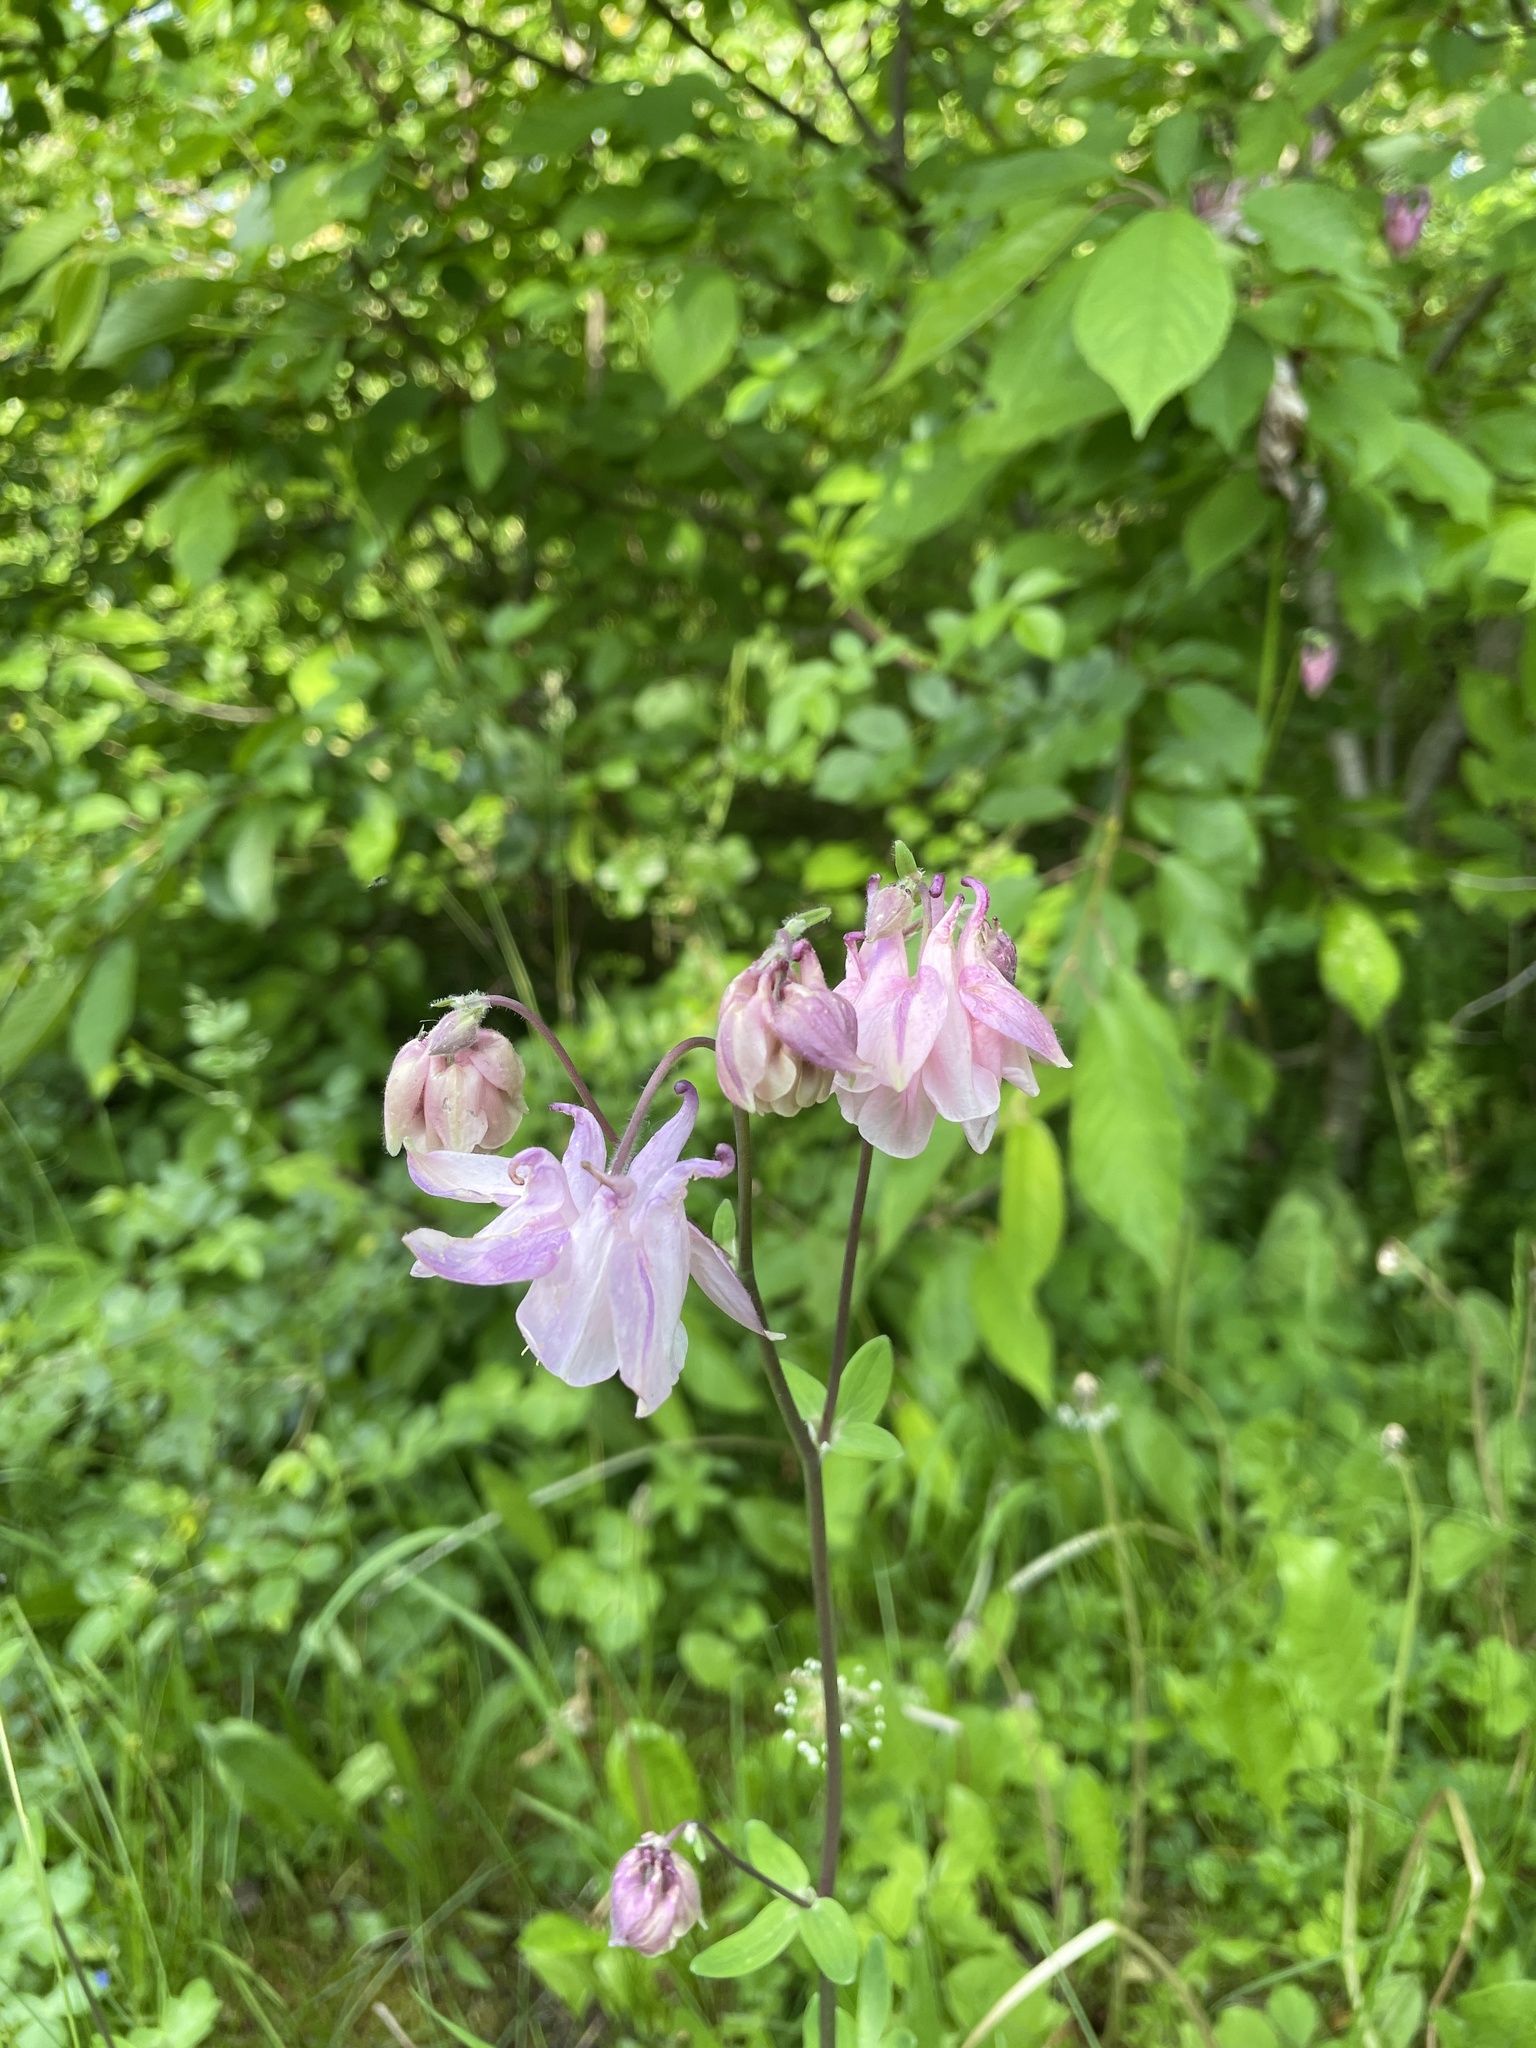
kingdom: Plantae
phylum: Tracheophyta
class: Magnoliopsida
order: Ranunculales
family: Ranunculaceae
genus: Aquilegia
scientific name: Aquilegia vulgaris
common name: Columbine
